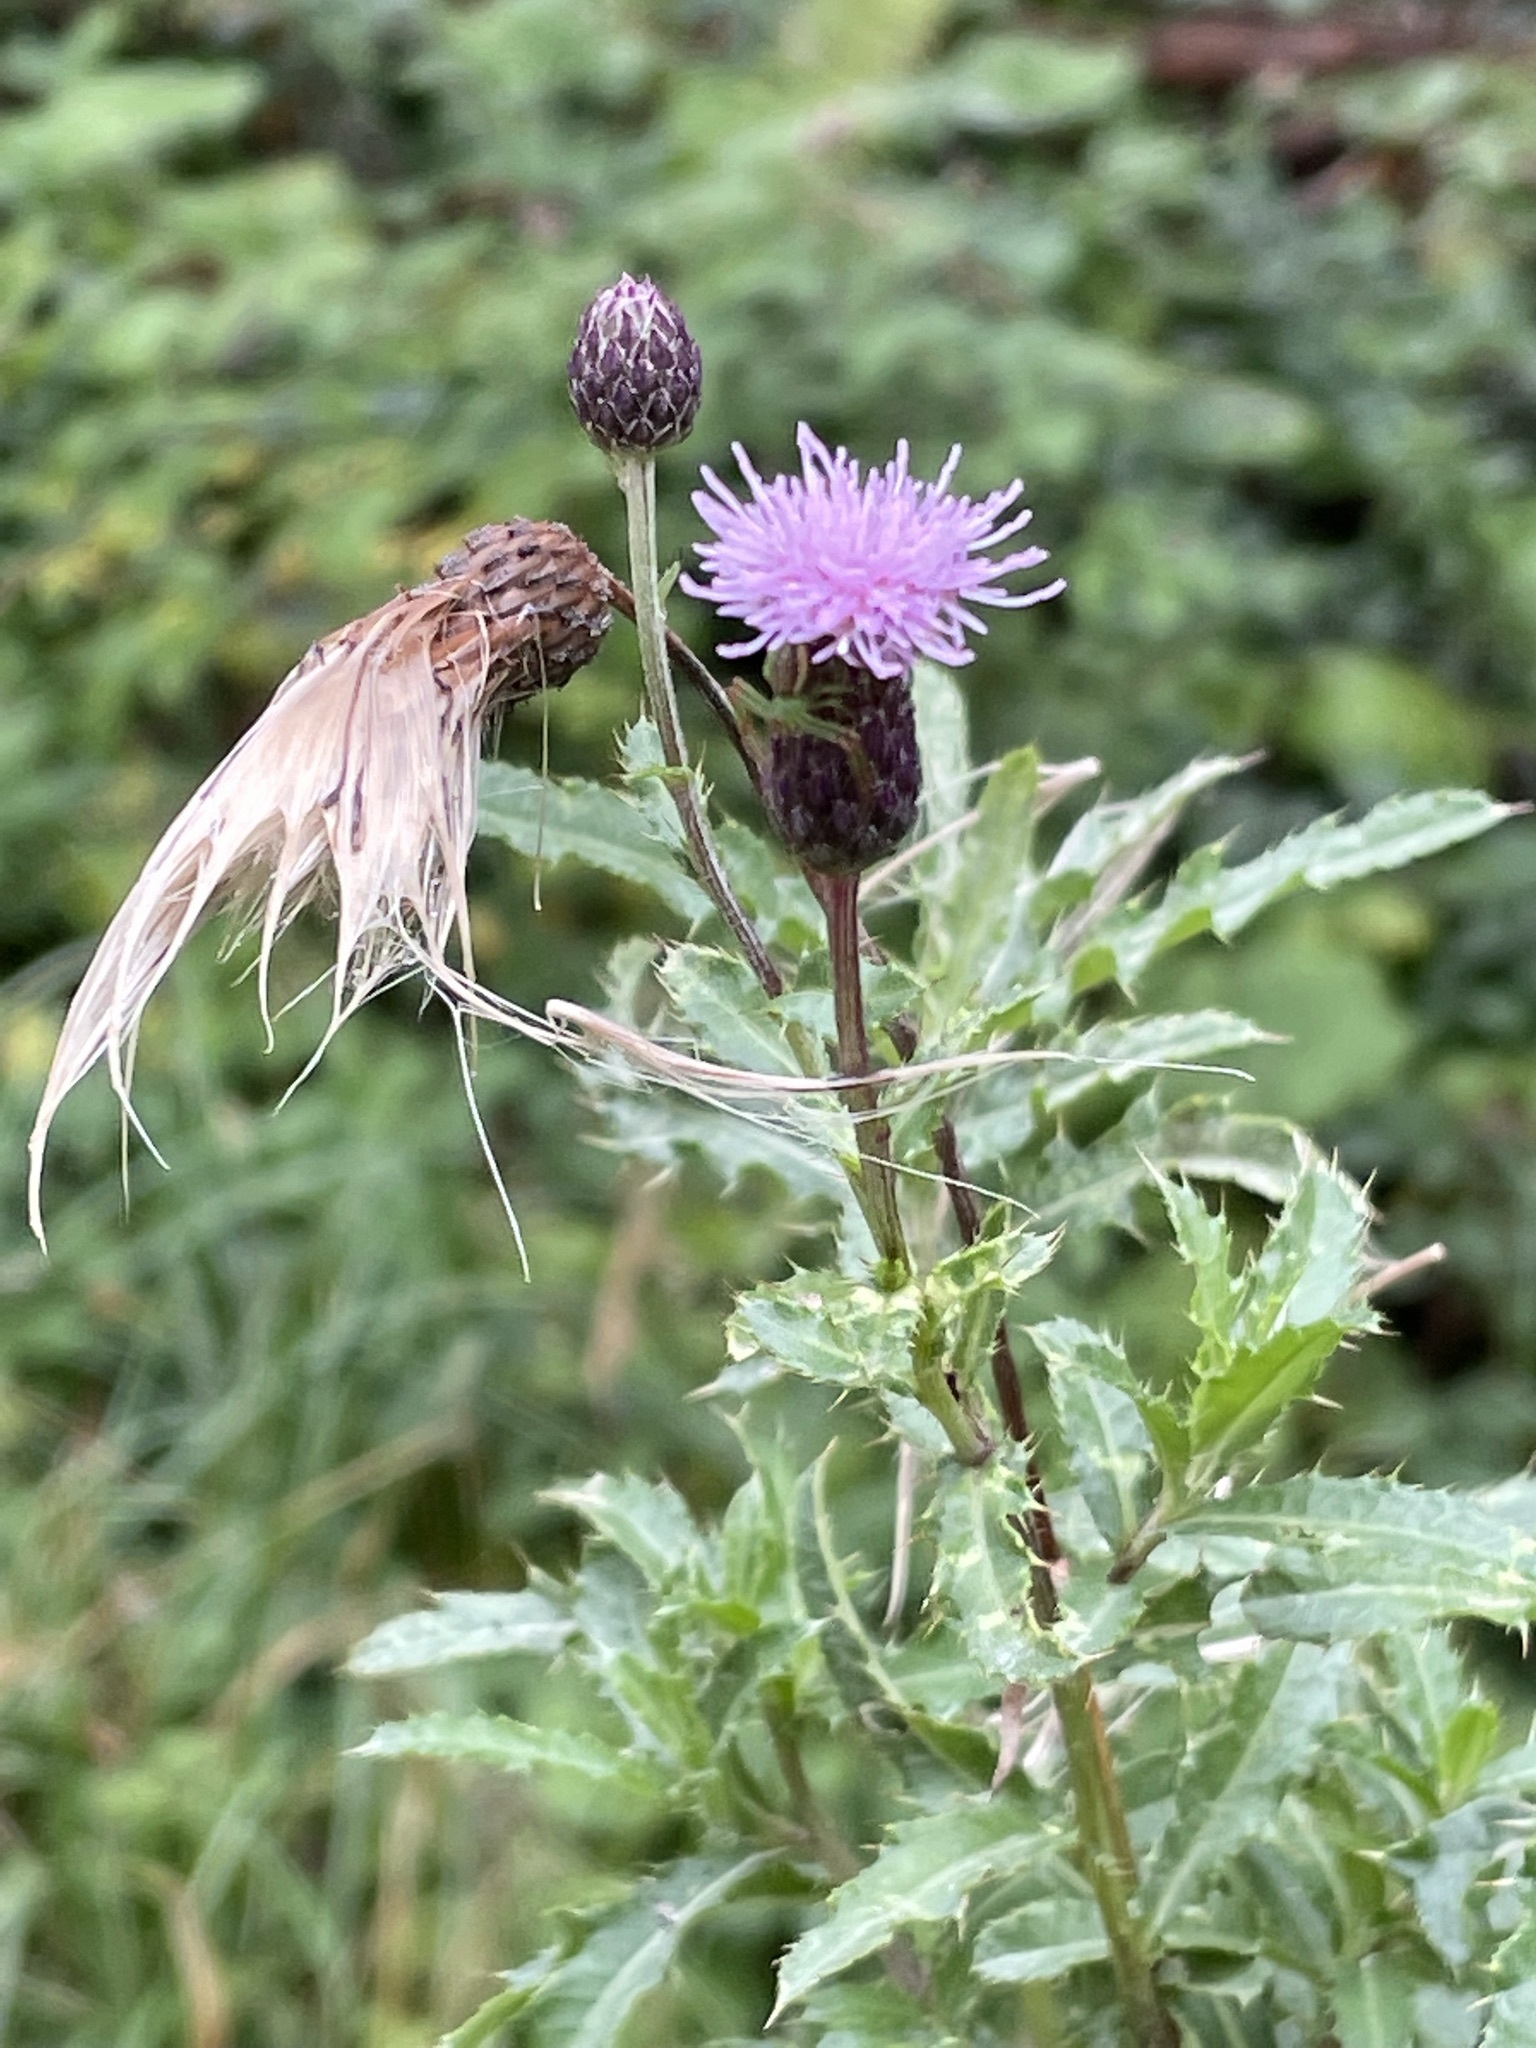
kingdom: Plantae
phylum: Tracheophyta
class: Magnoliopsida
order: Asterales
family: Asteraceae
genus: Cirsium
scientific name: Cirsium arvense
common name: Creeping thistle
